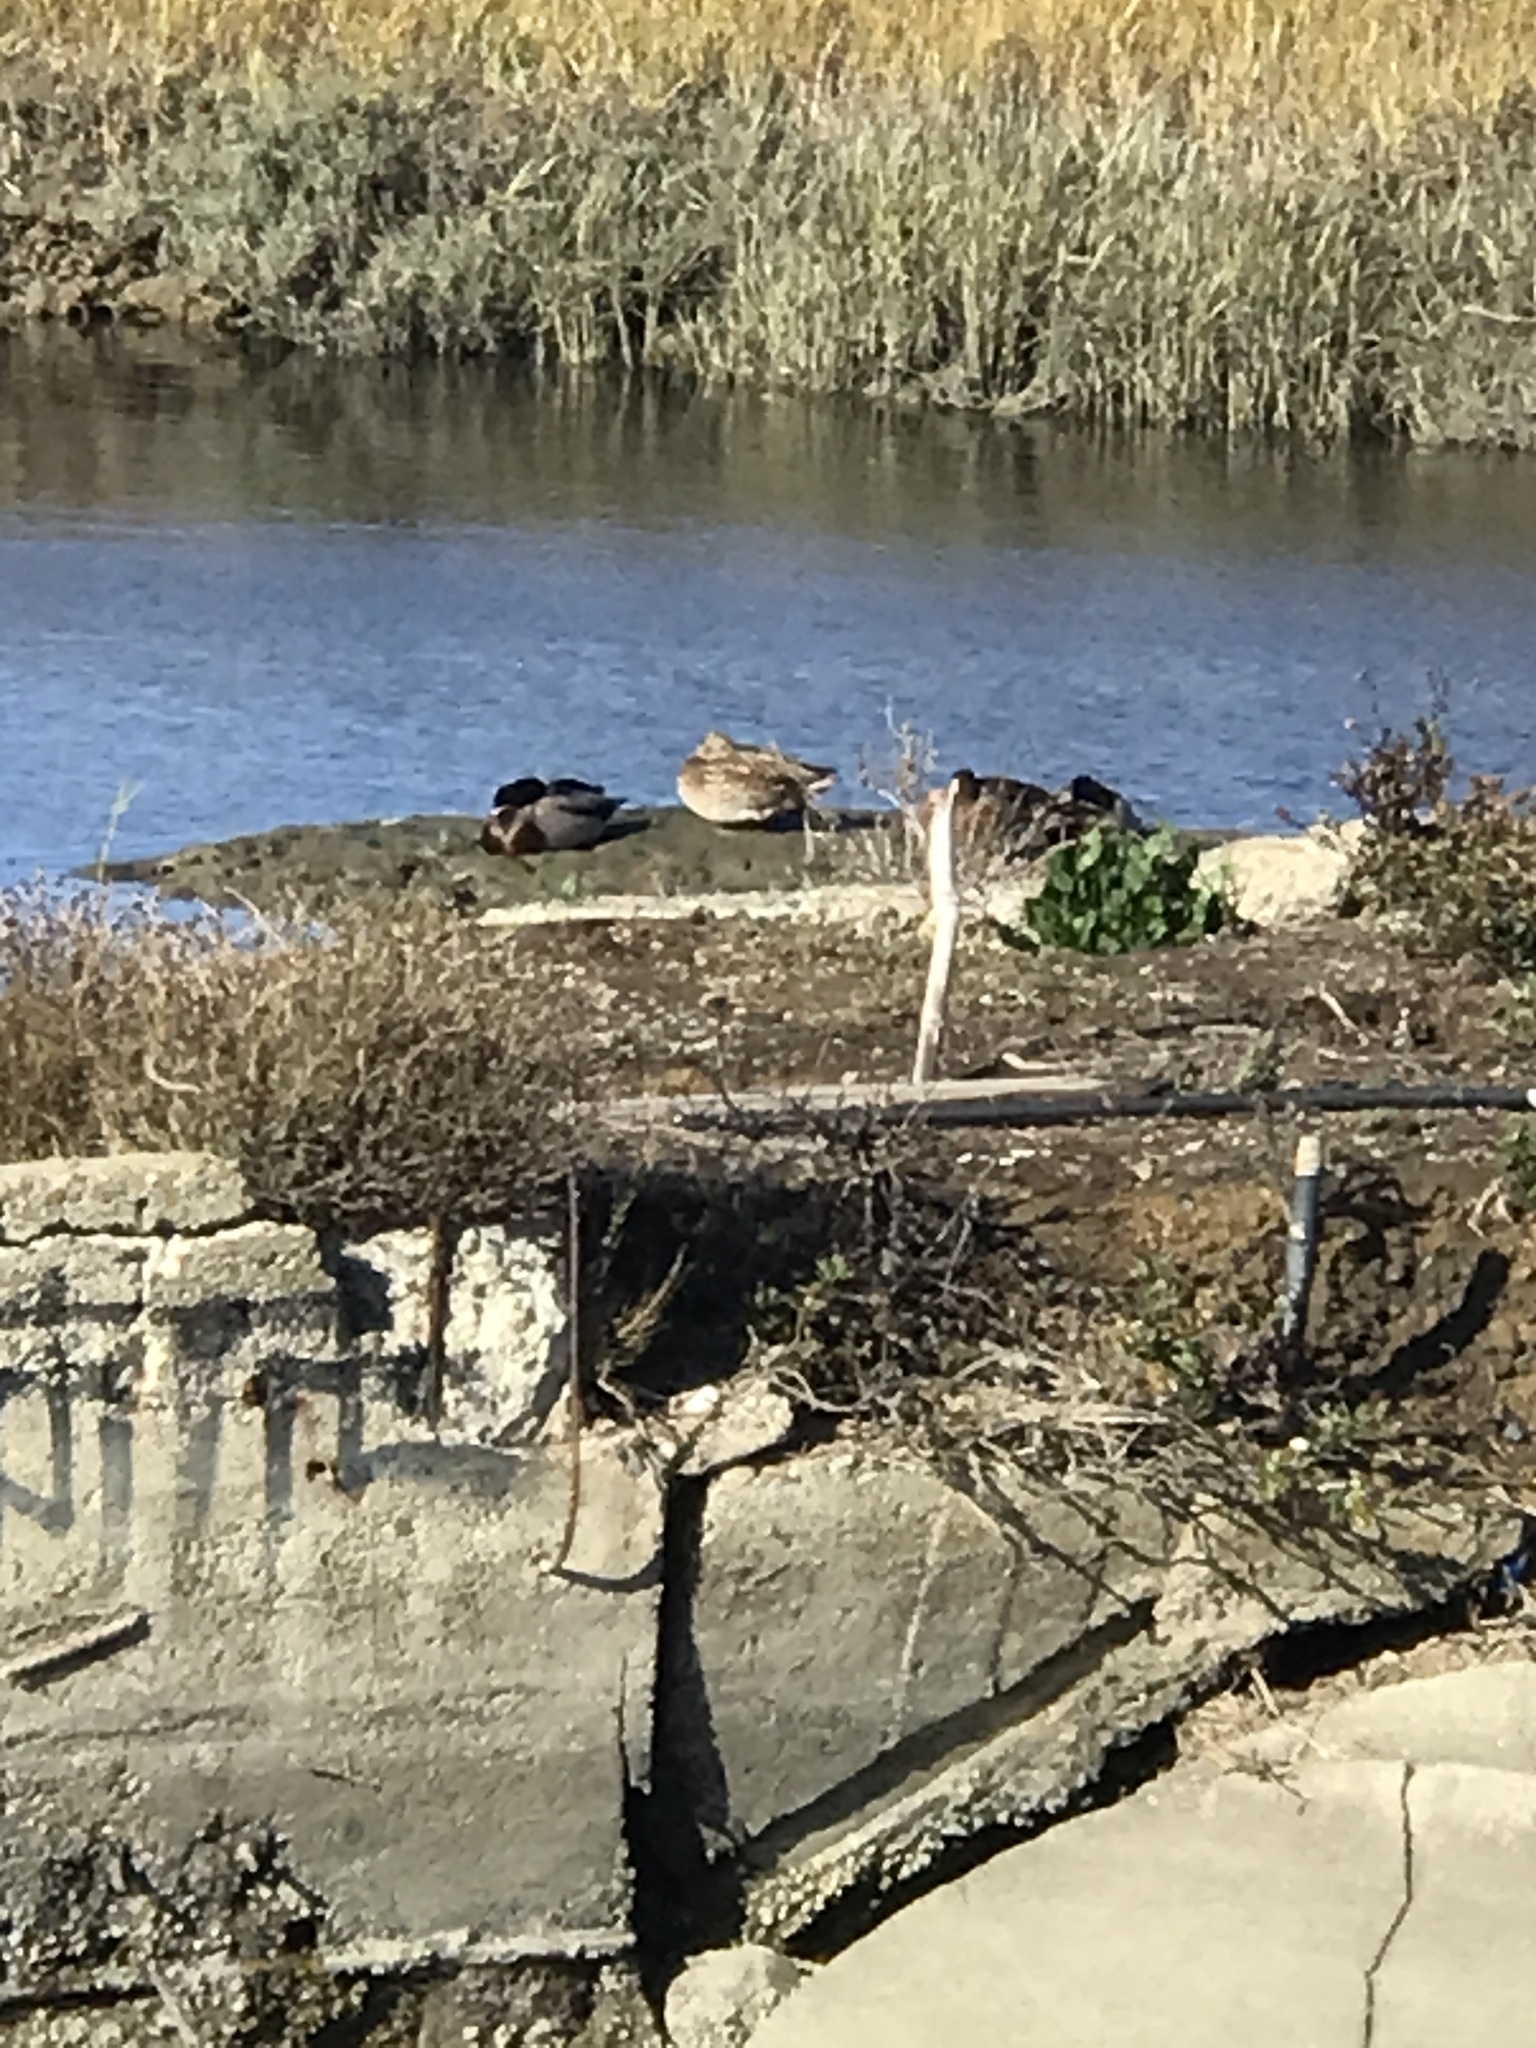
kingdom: Animalia
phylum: Chordata
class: Aves
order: Anseriformes
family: Anatidae
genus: Anas
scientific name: Anas platyrhynchos
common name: Mallard
